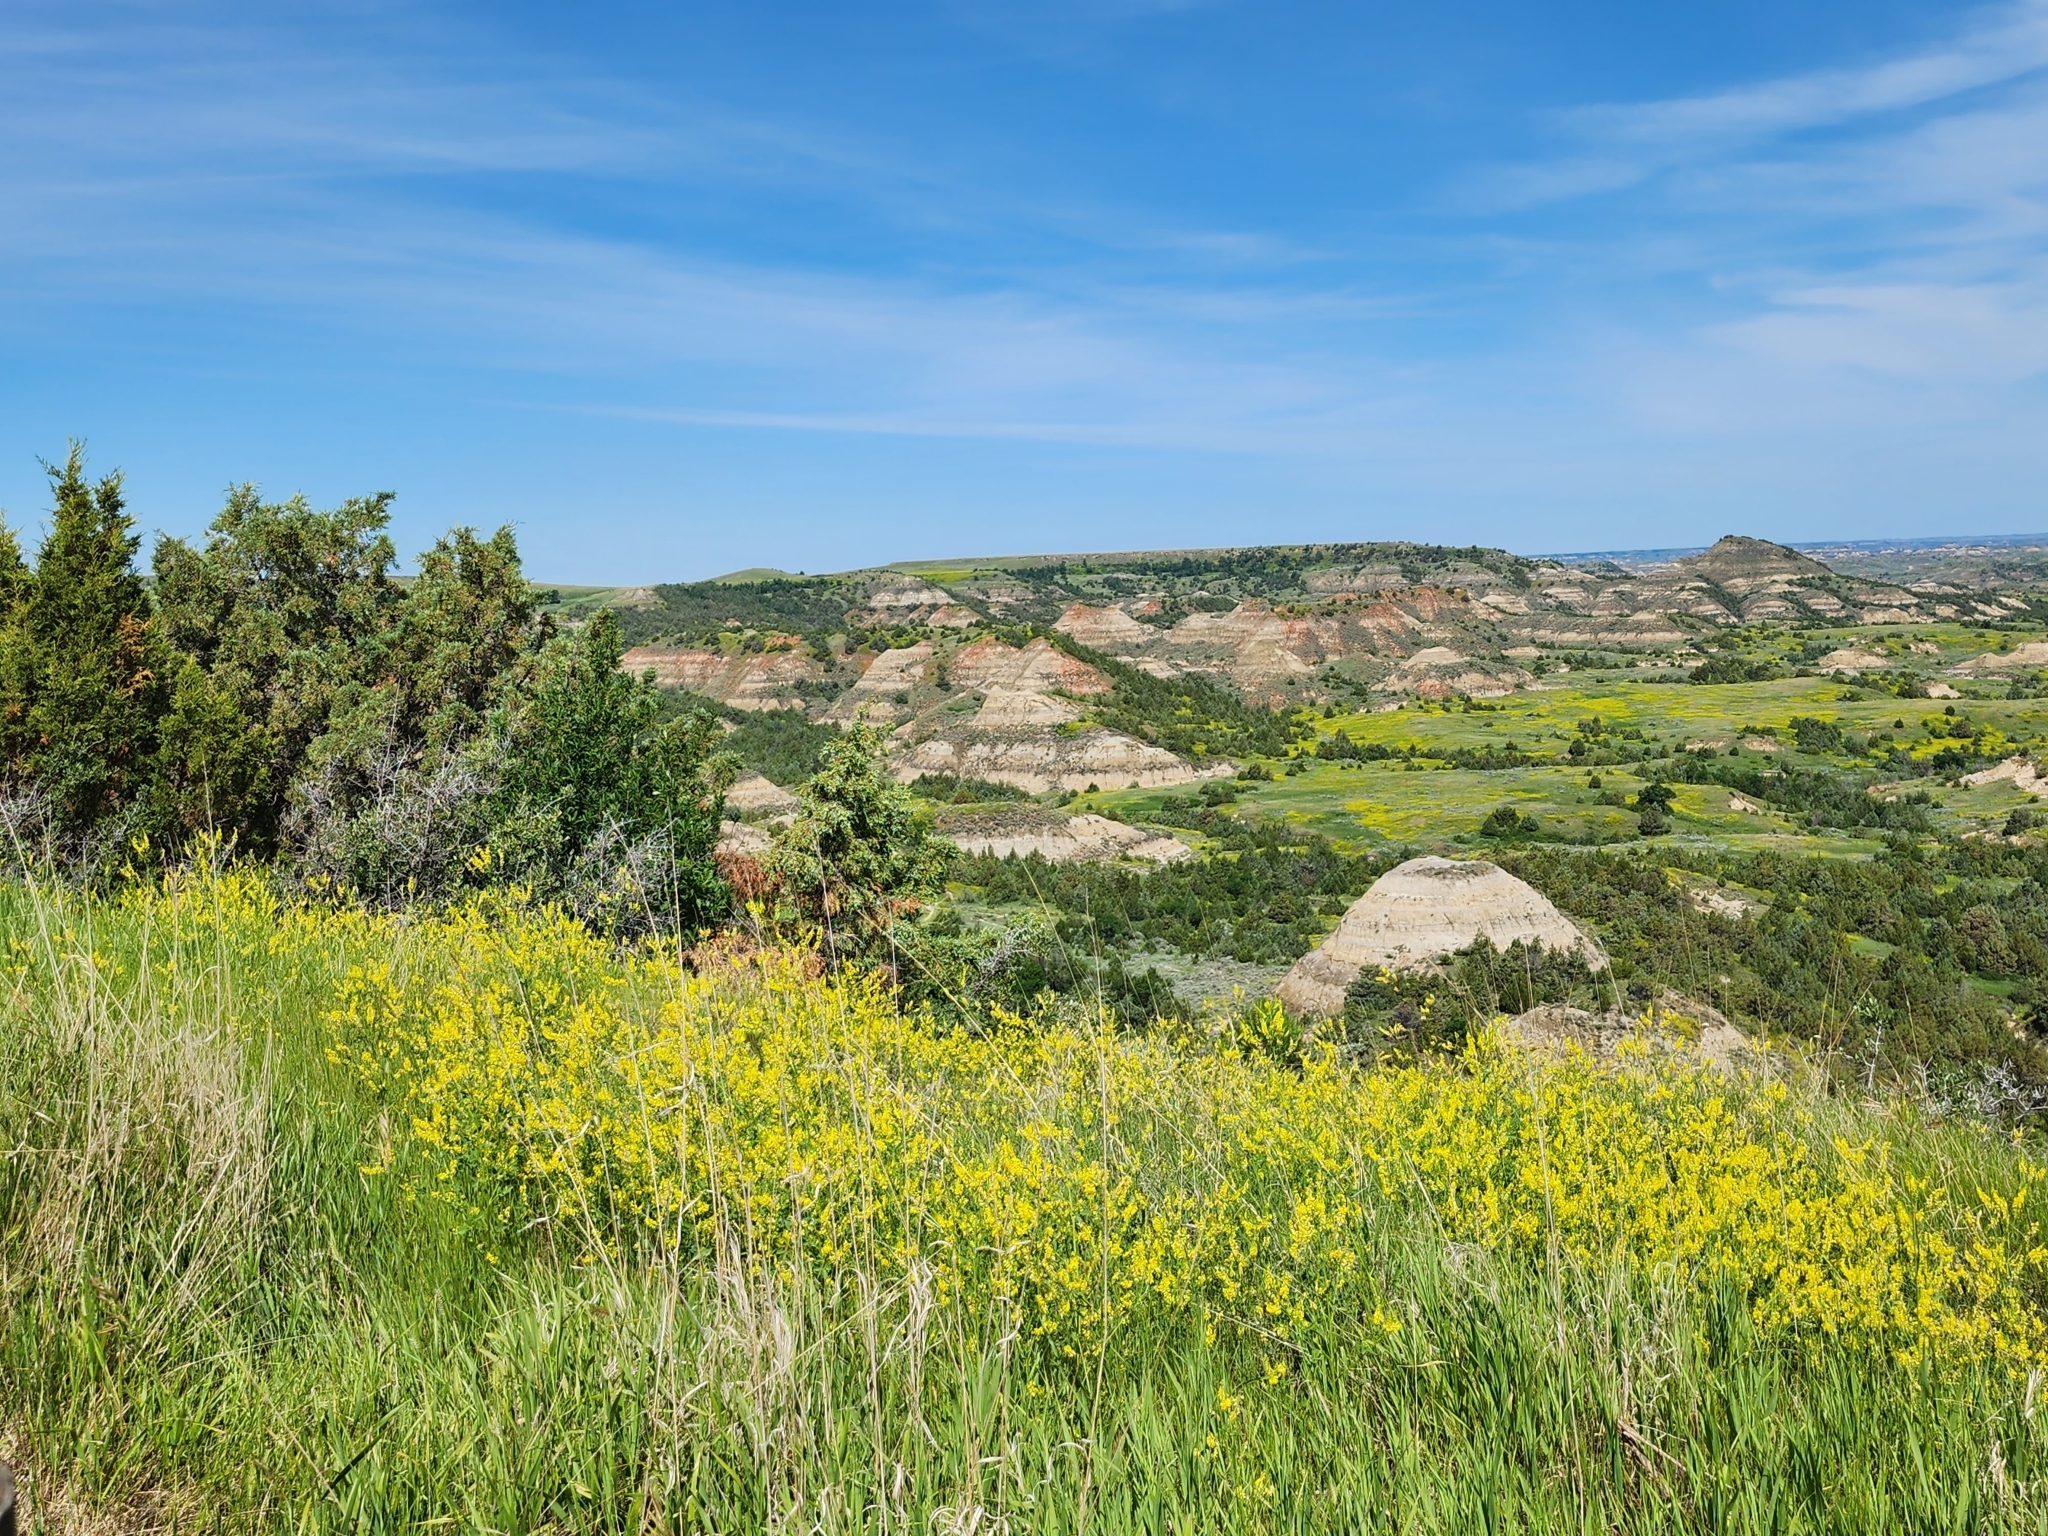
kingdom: Plantae
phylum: Tracheophyta
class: Magnoliopsida
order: Fabales
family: Fabaceae
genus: Melilotus
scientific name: Melilotus officinalis
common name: Sweetclover
